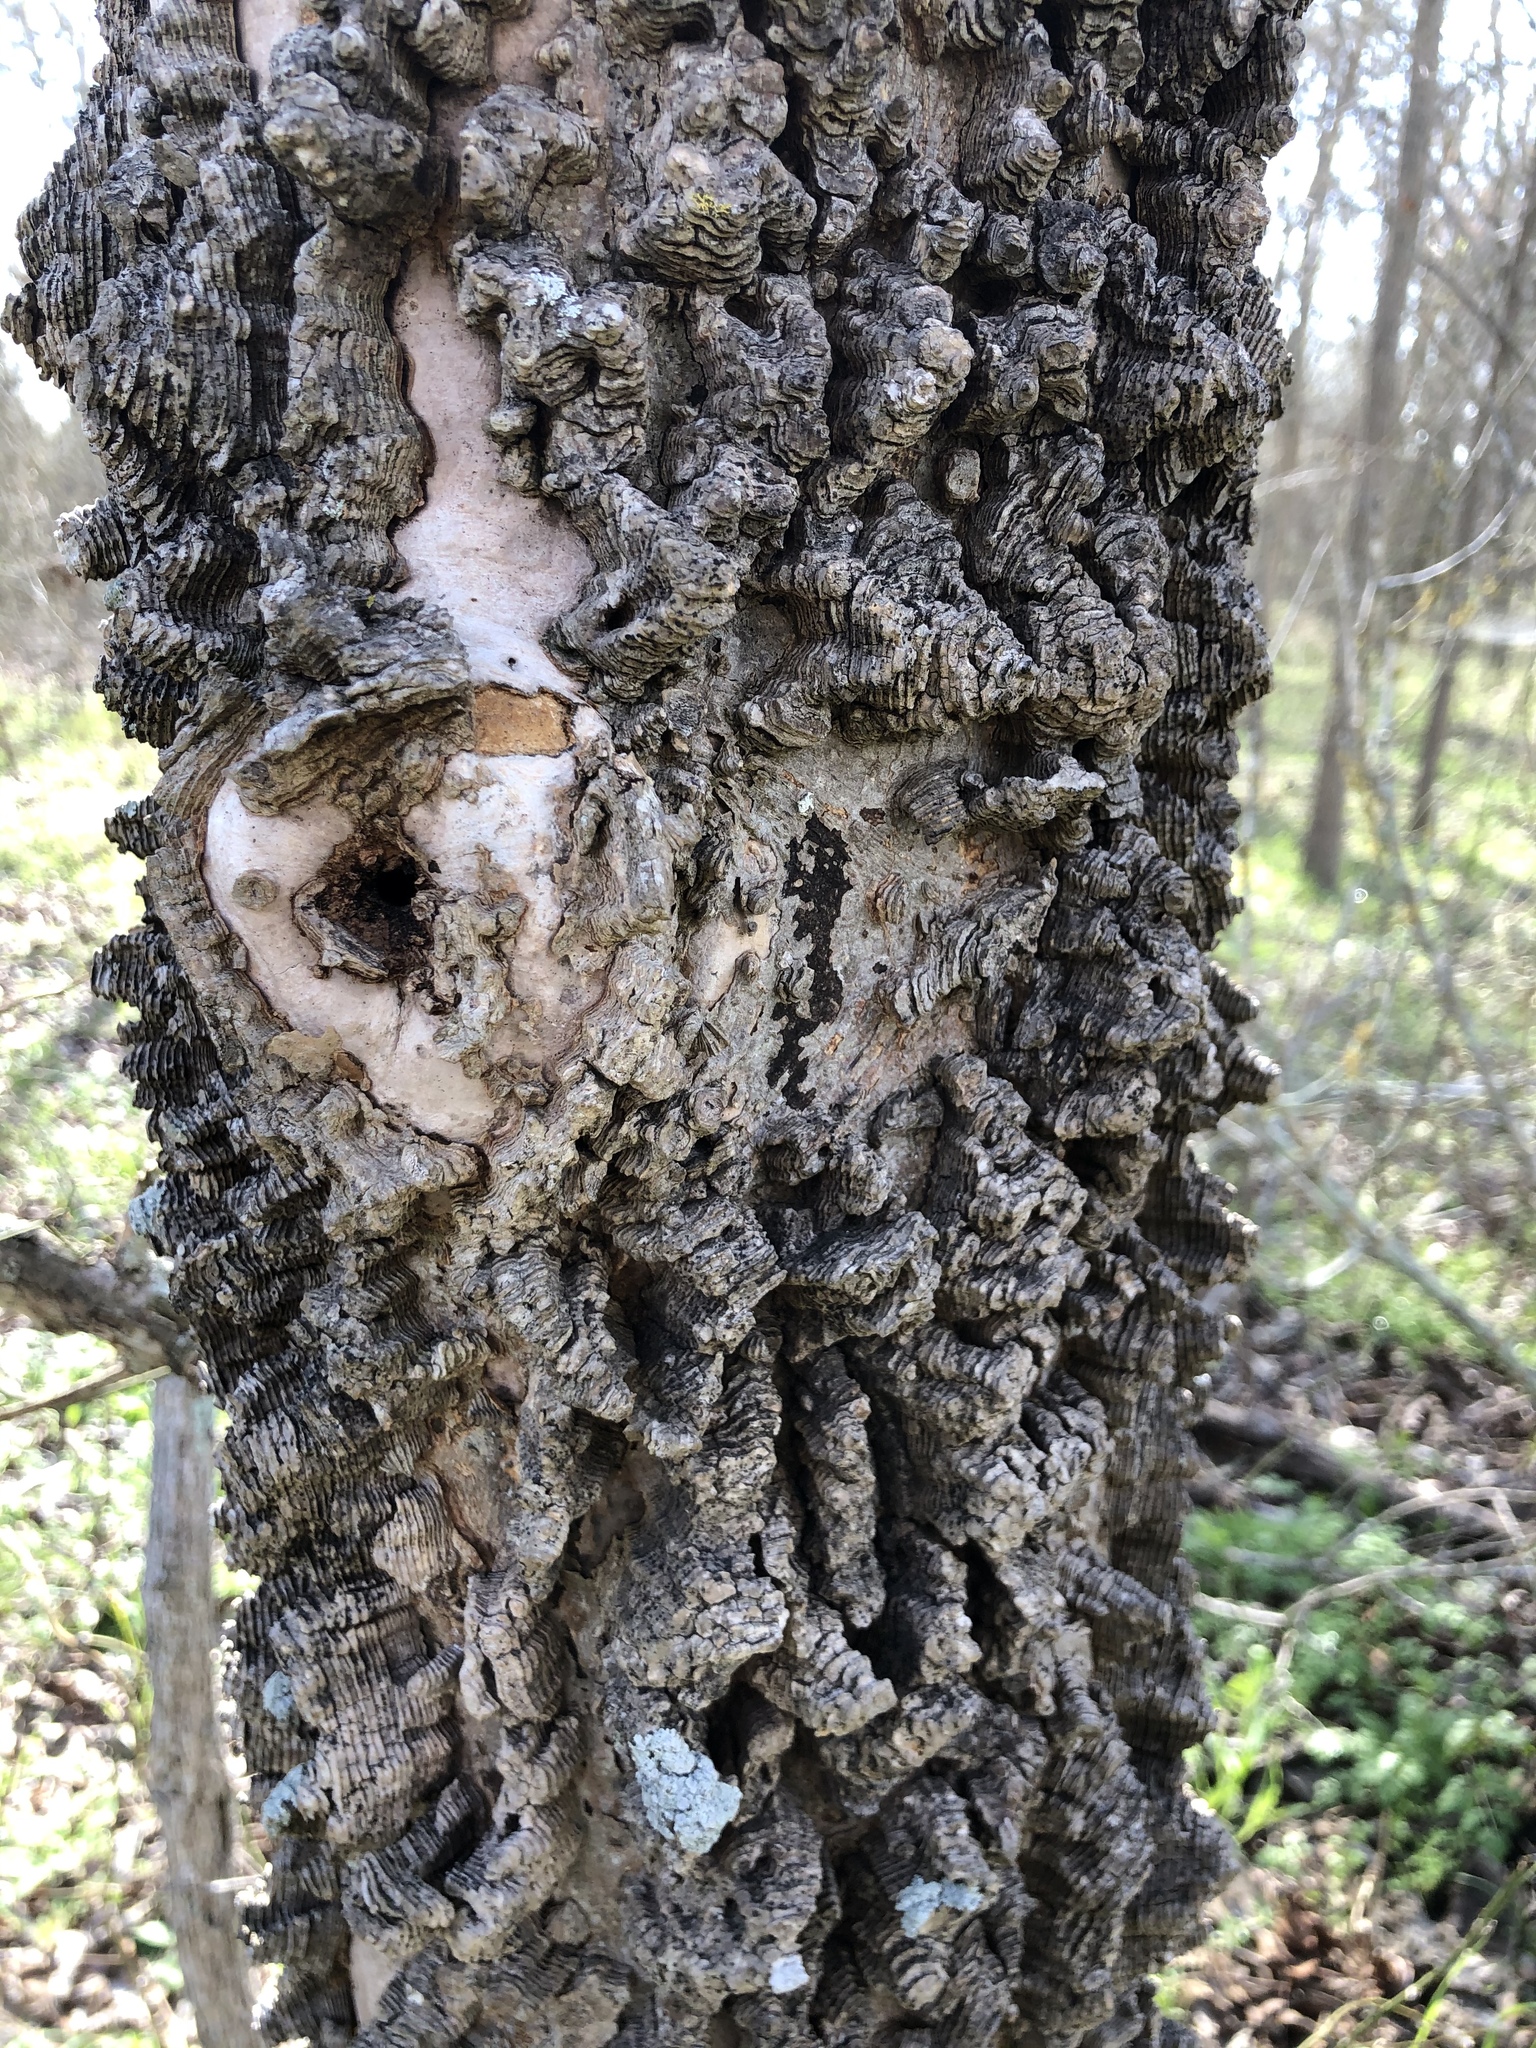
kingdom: Plantae
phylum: Tracheophyta
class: Magnoliopsida
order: Rosales
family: Cannabaceae
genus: Celtis
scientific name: Celtis laevigata
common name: Sugarberry
